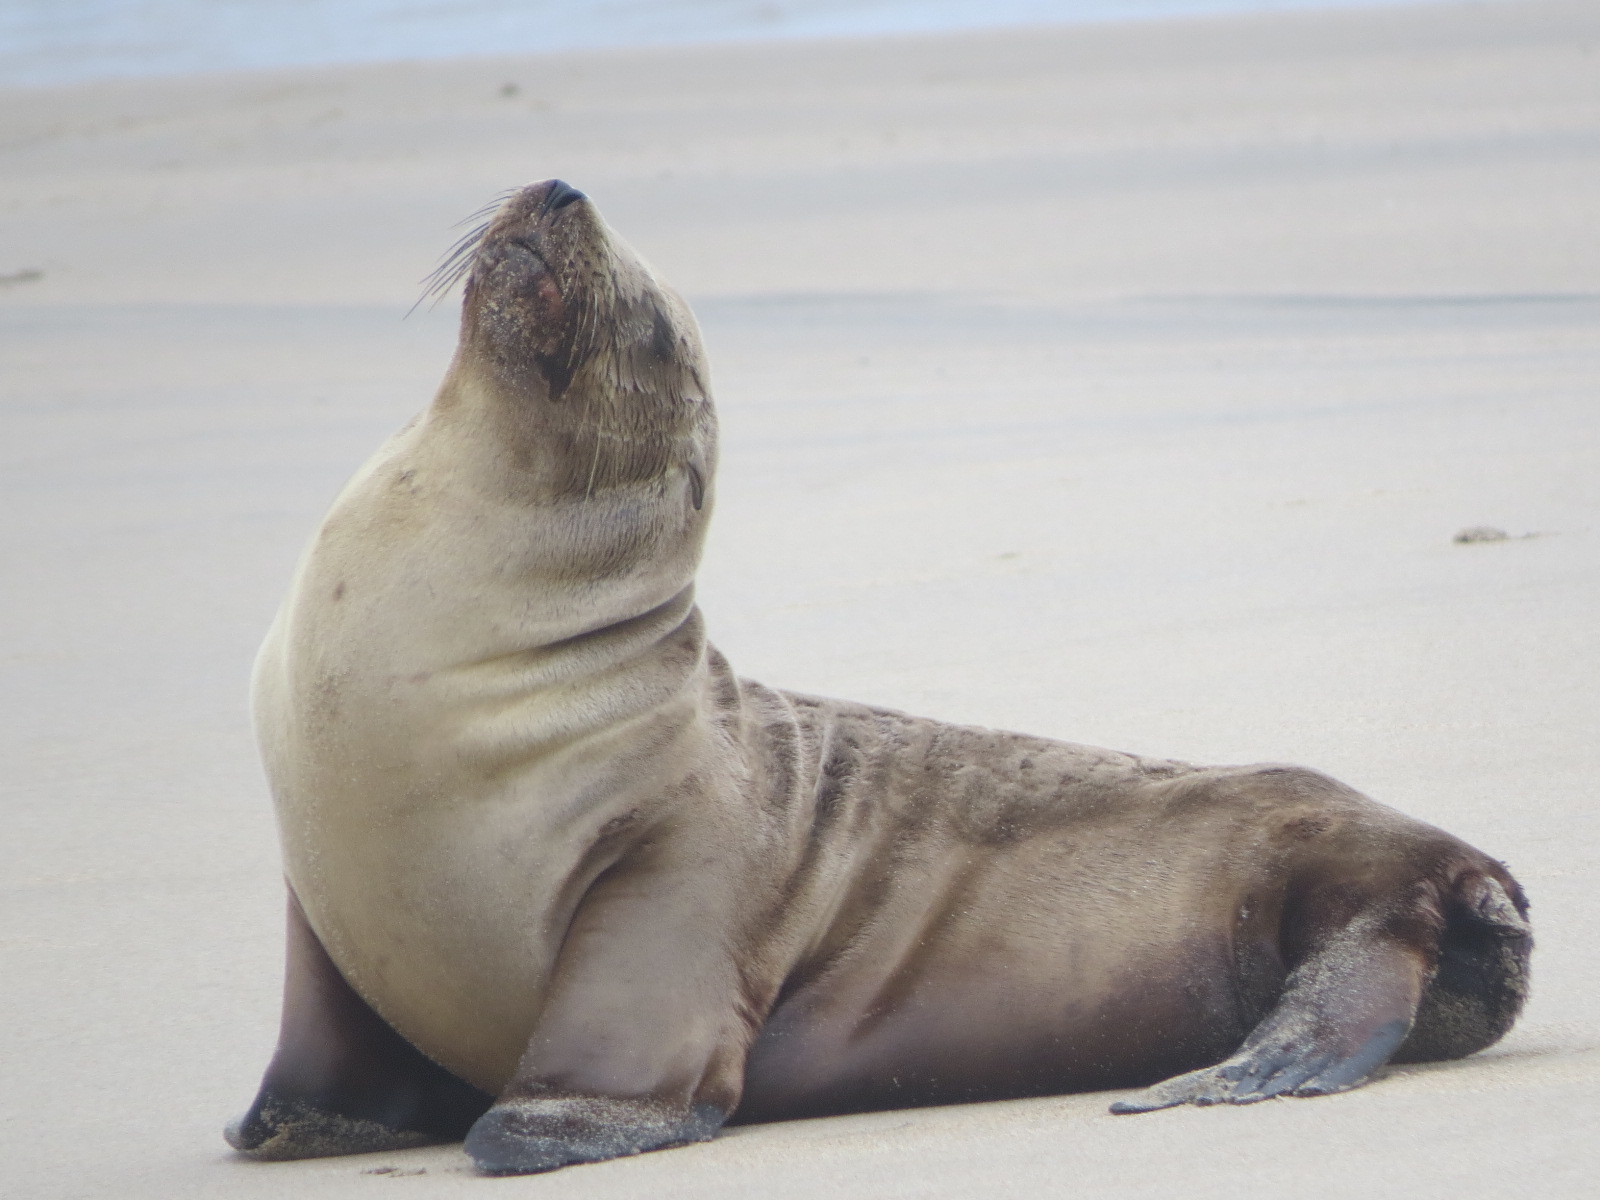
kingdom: Animalia
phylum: Chordata
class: Mammalia
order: Carnivora
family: Otariidae
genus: Zalophus
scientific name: Zalophus californianus
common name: California sea lion
